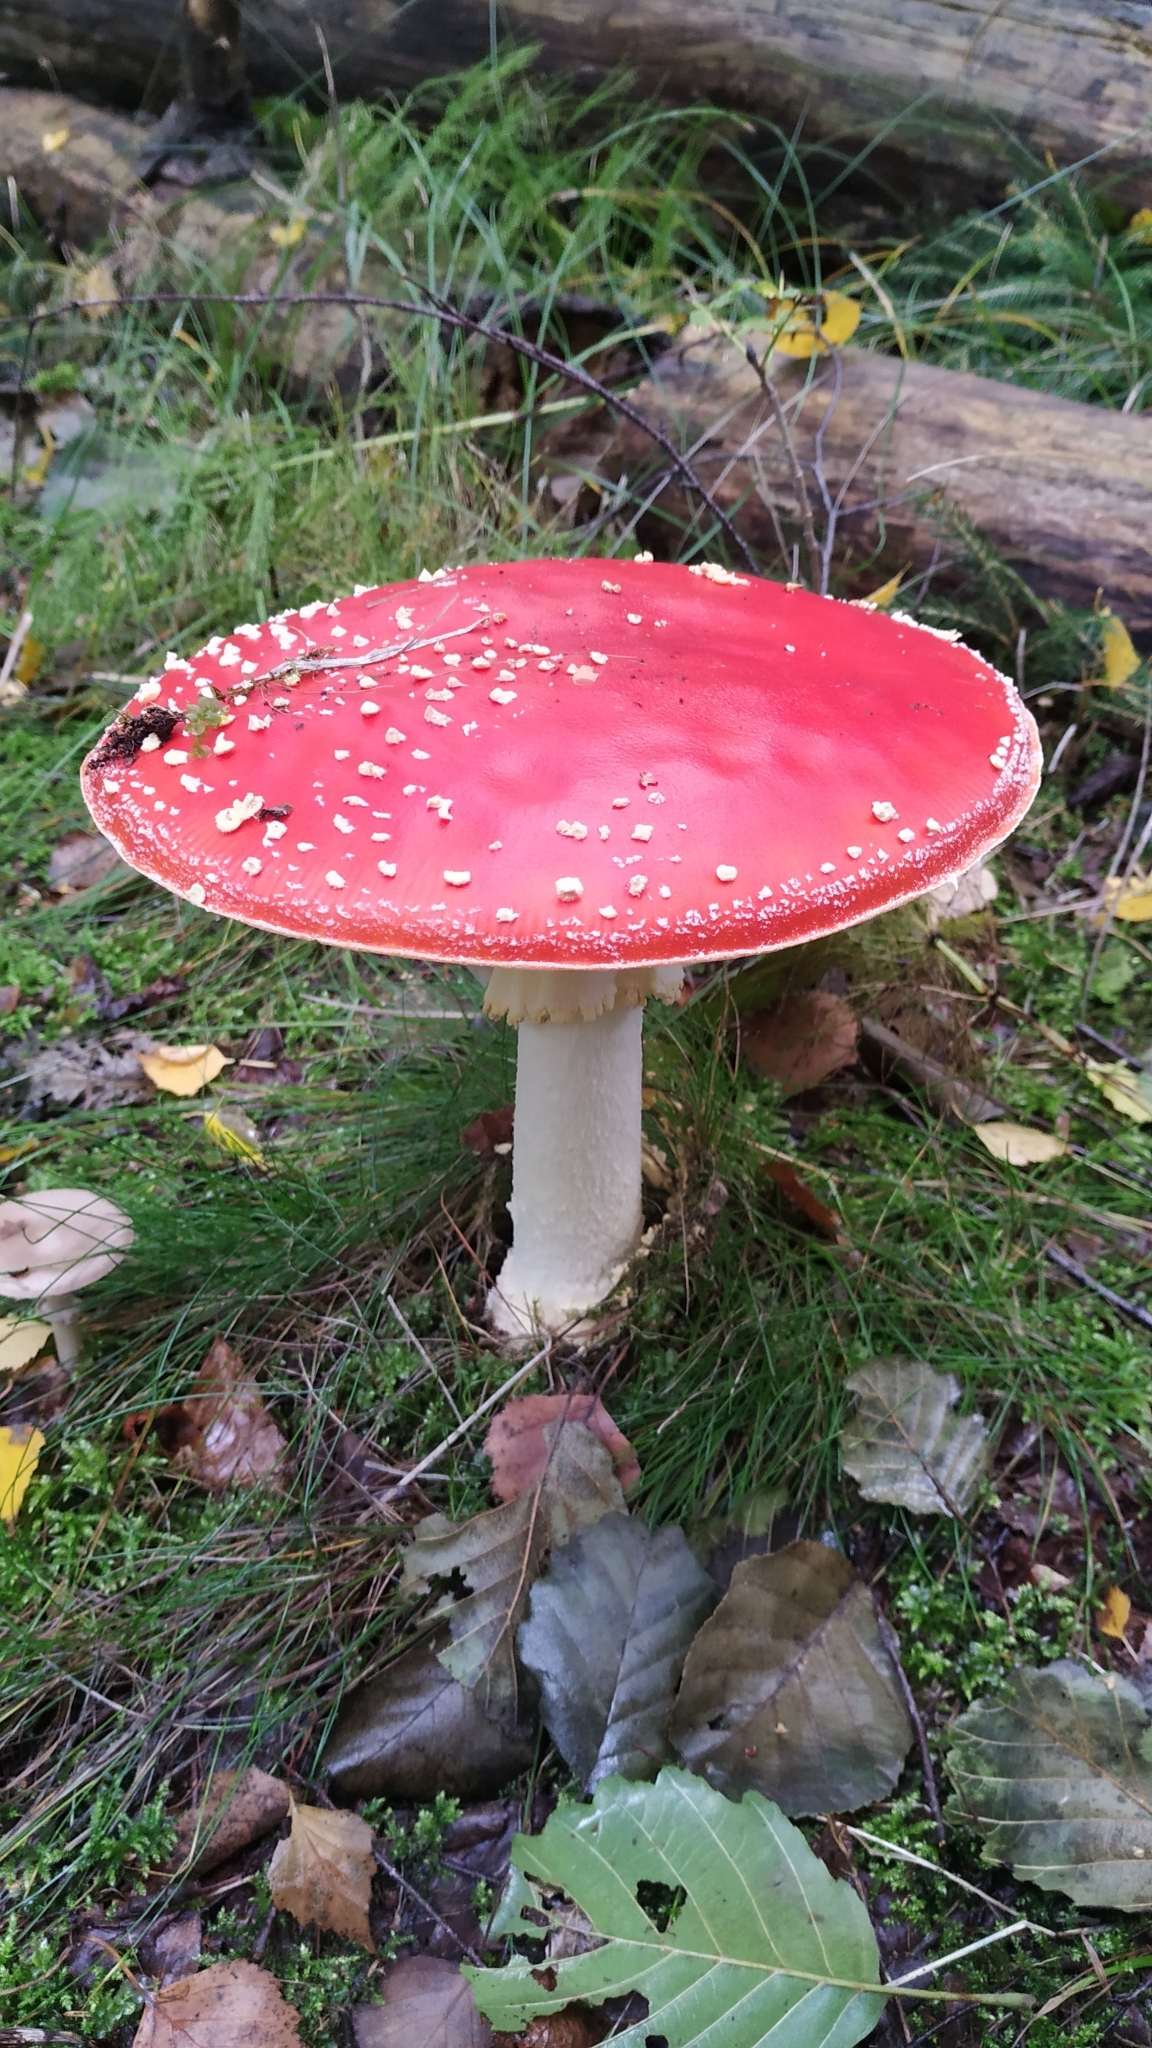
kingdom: Fungi
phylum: Basidiomycota
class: Agaricomycetes
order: Agaricales
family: Amanitaceae
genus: Amanita
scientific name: Amanita muscaria
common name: Fly agaric
